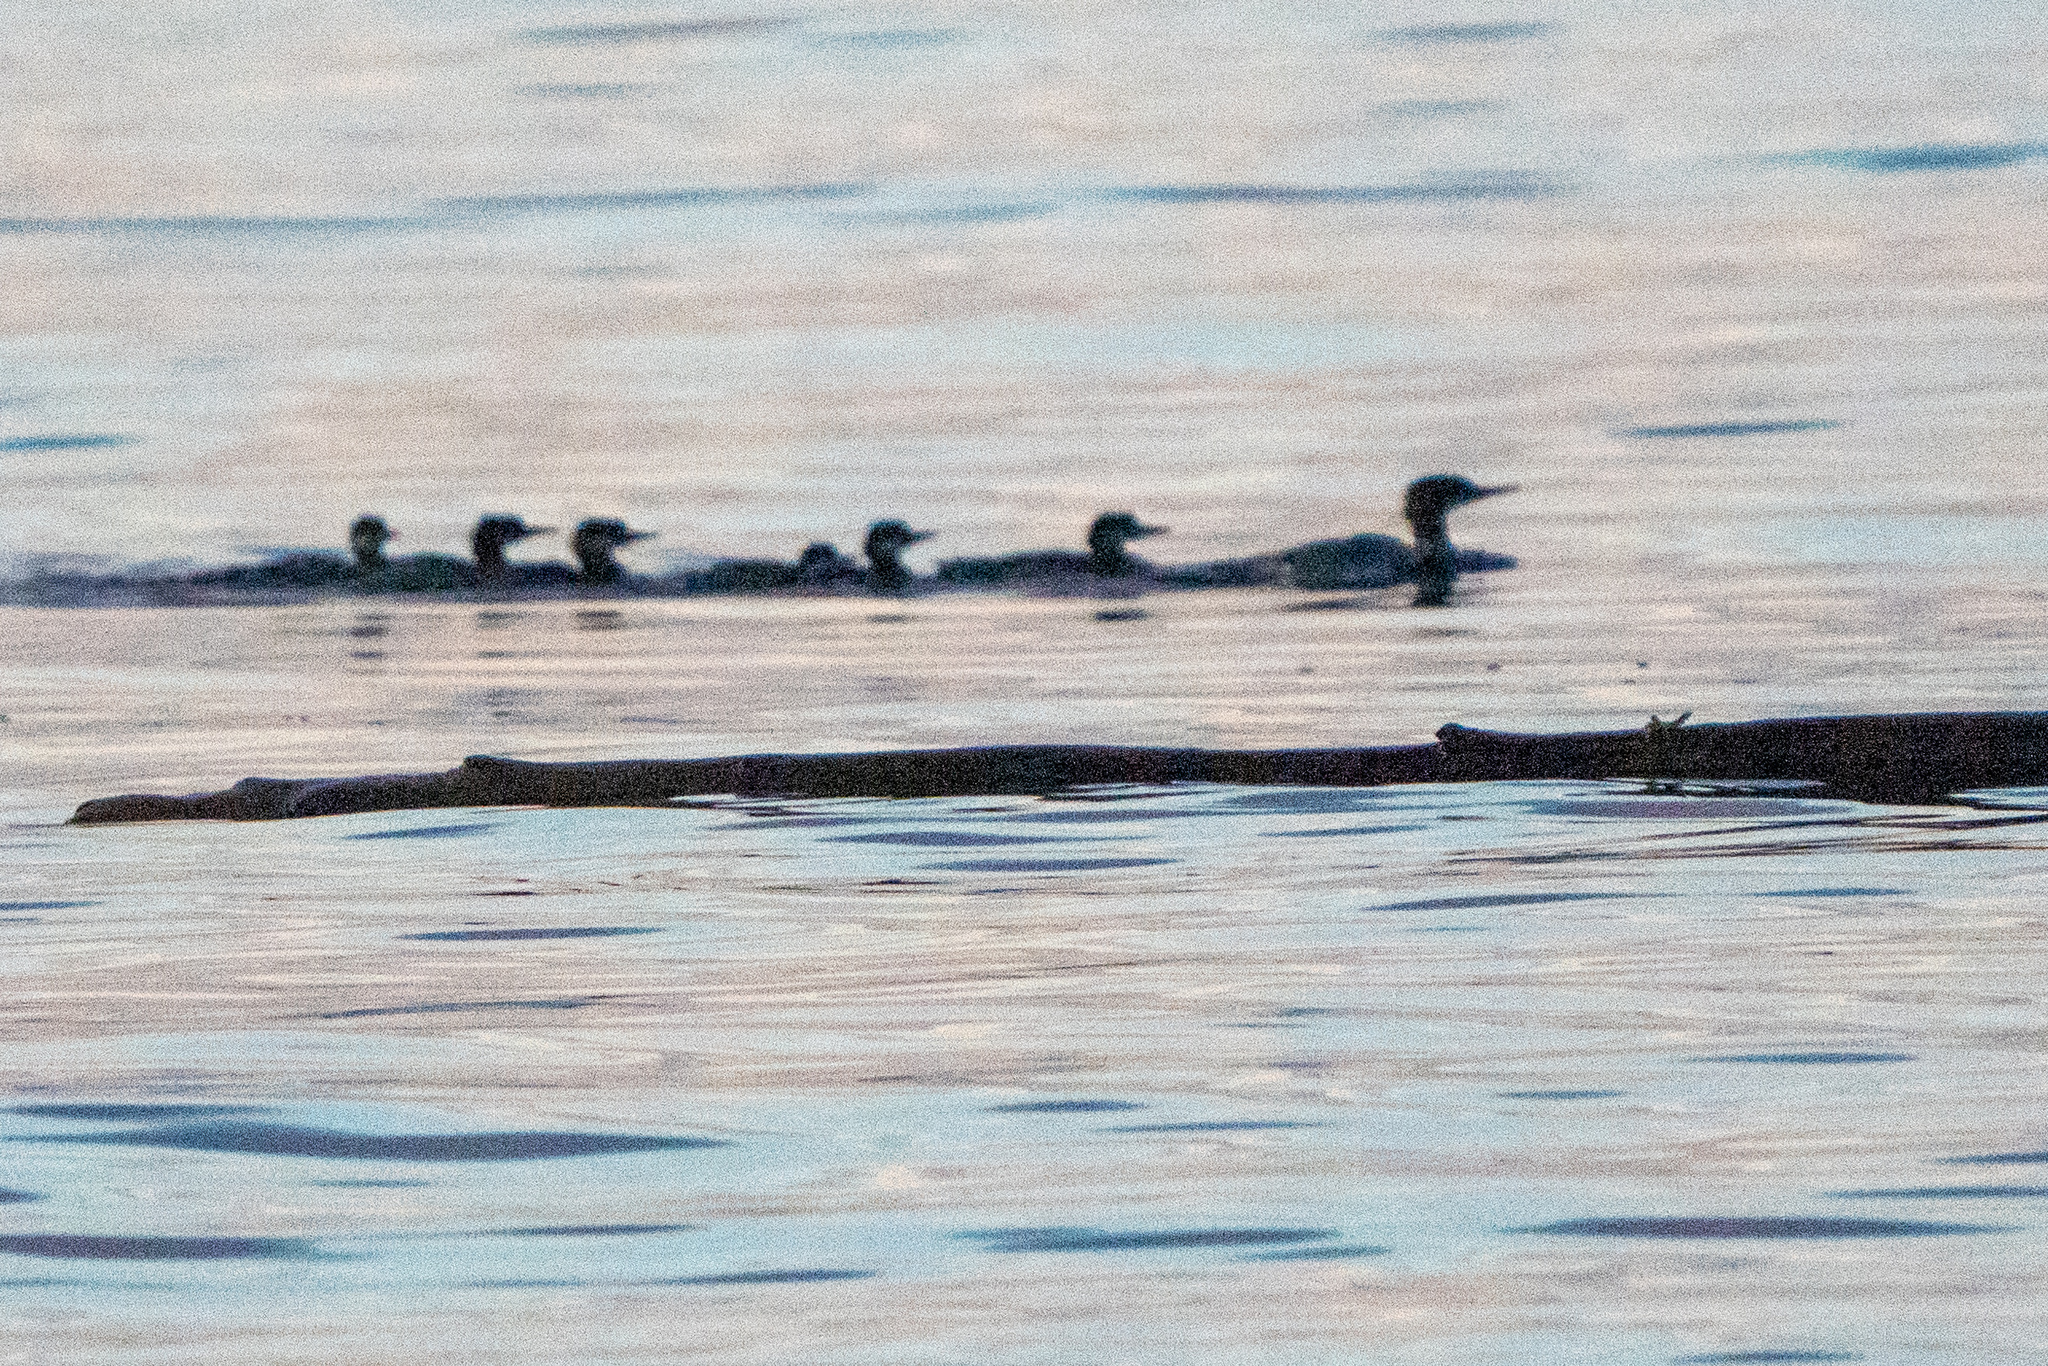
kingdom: Animalia
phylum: Chordata
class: Aves
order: Anseriformes
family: Anatidae
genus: Mergus
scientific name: Mergus merganser
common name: Common merganser
